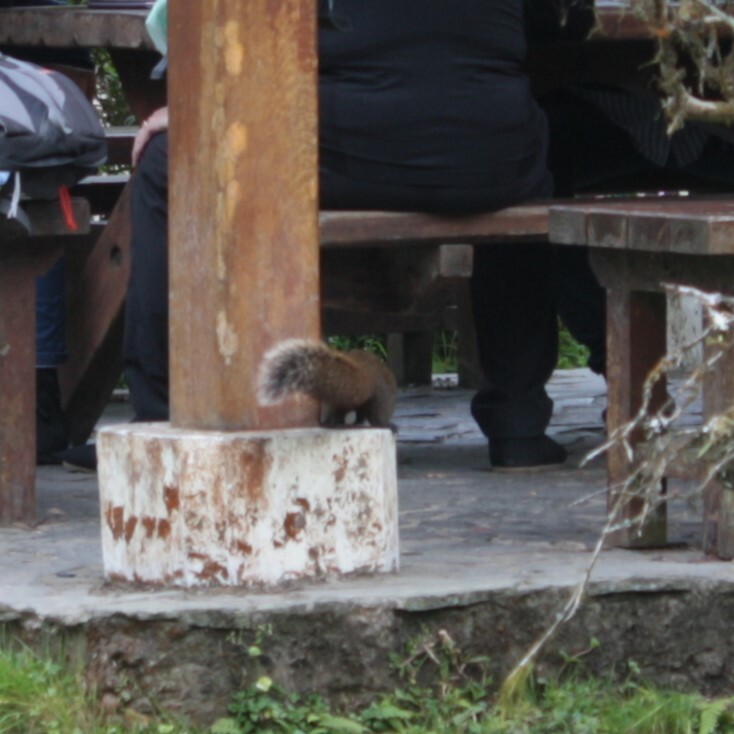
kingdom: Animalia
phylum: Chordata
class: Mammalia
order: Rodentia
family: Sciuridae
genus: Callosciurus
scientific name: Callosciurus erythraeus
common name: Pallas's squirrel
